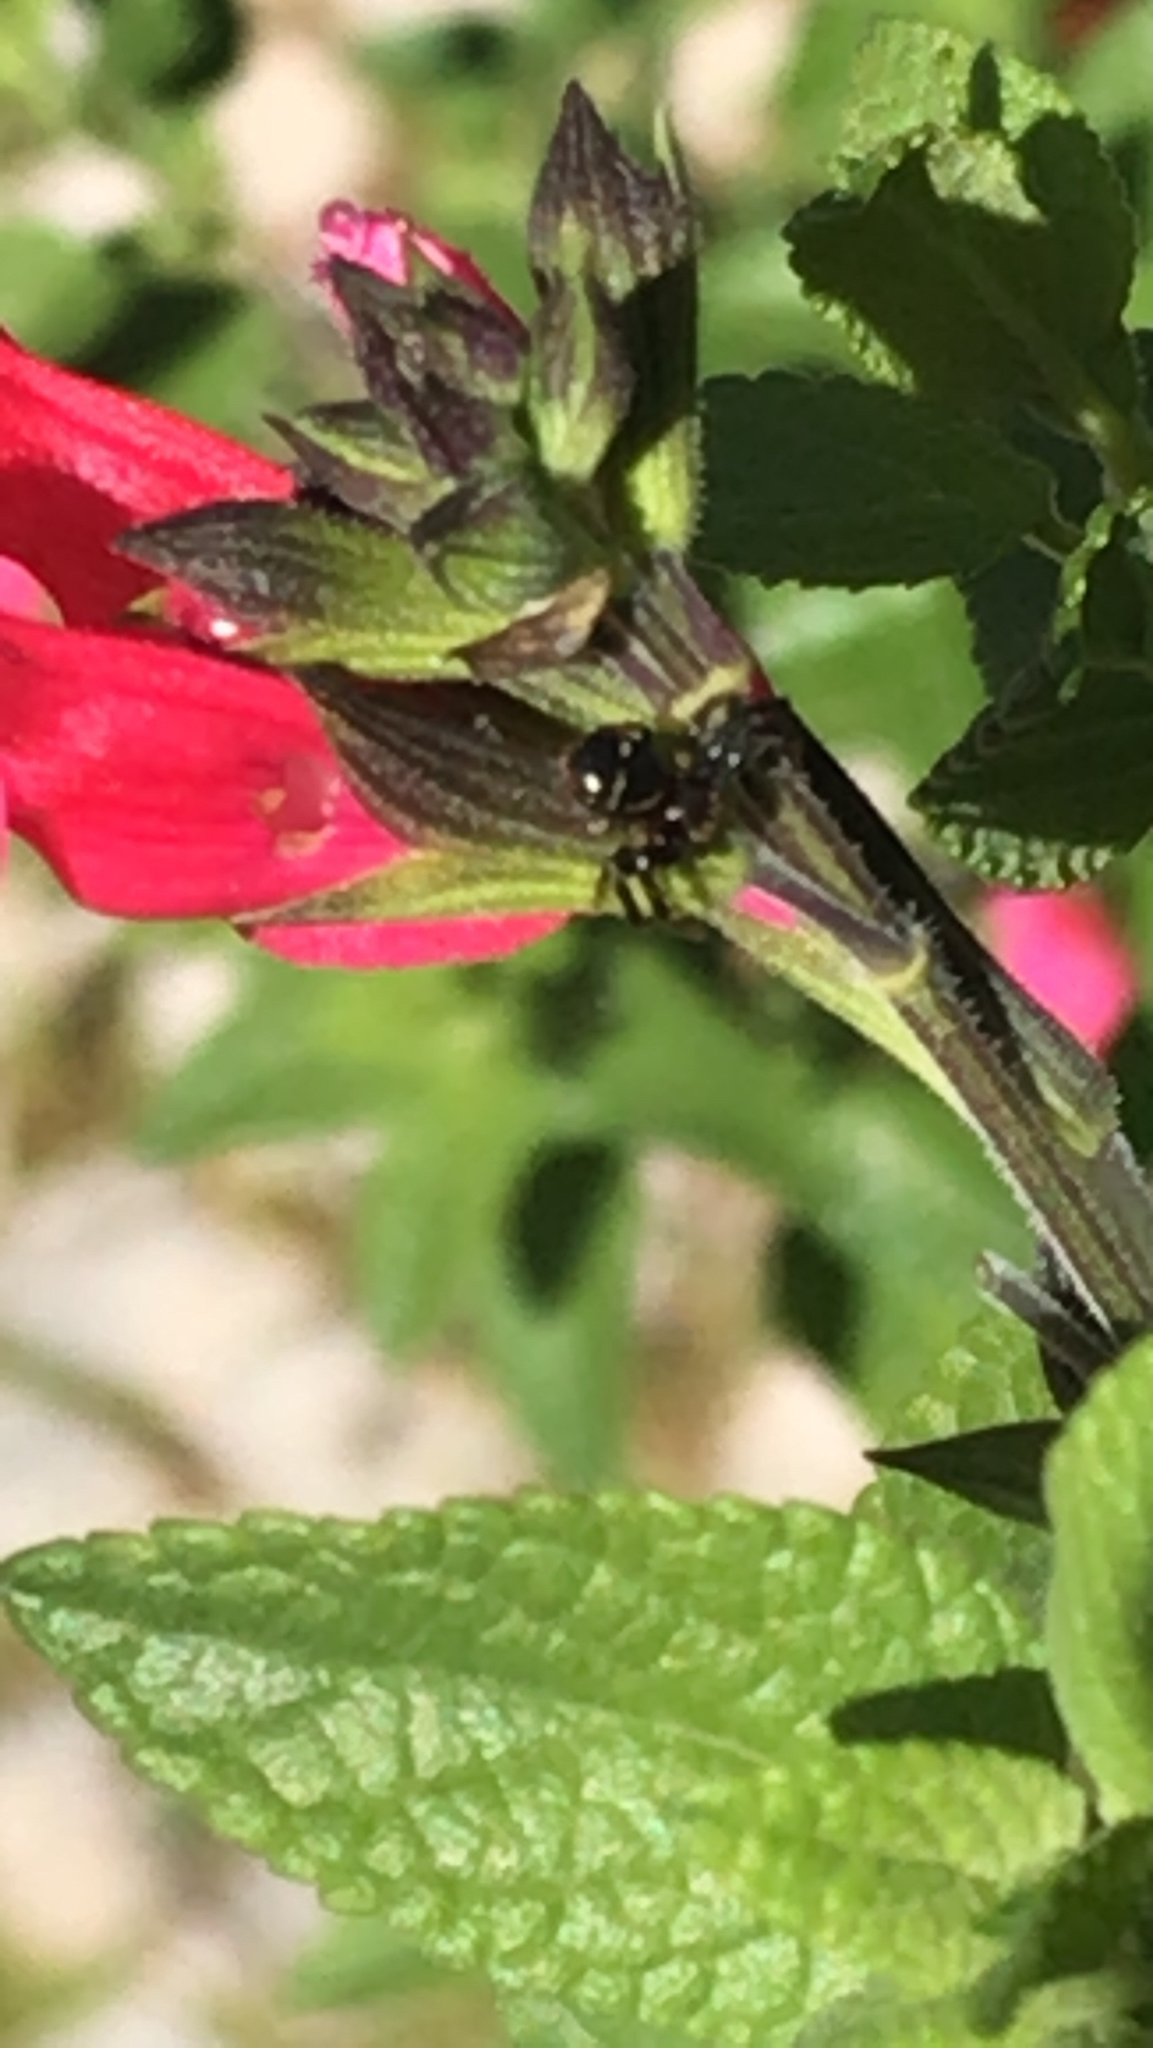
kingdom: Animalia
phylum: Arthropoda
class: Arachnida
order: Araneae
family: Thomisidae
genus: Synema
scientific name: Synema globosum
